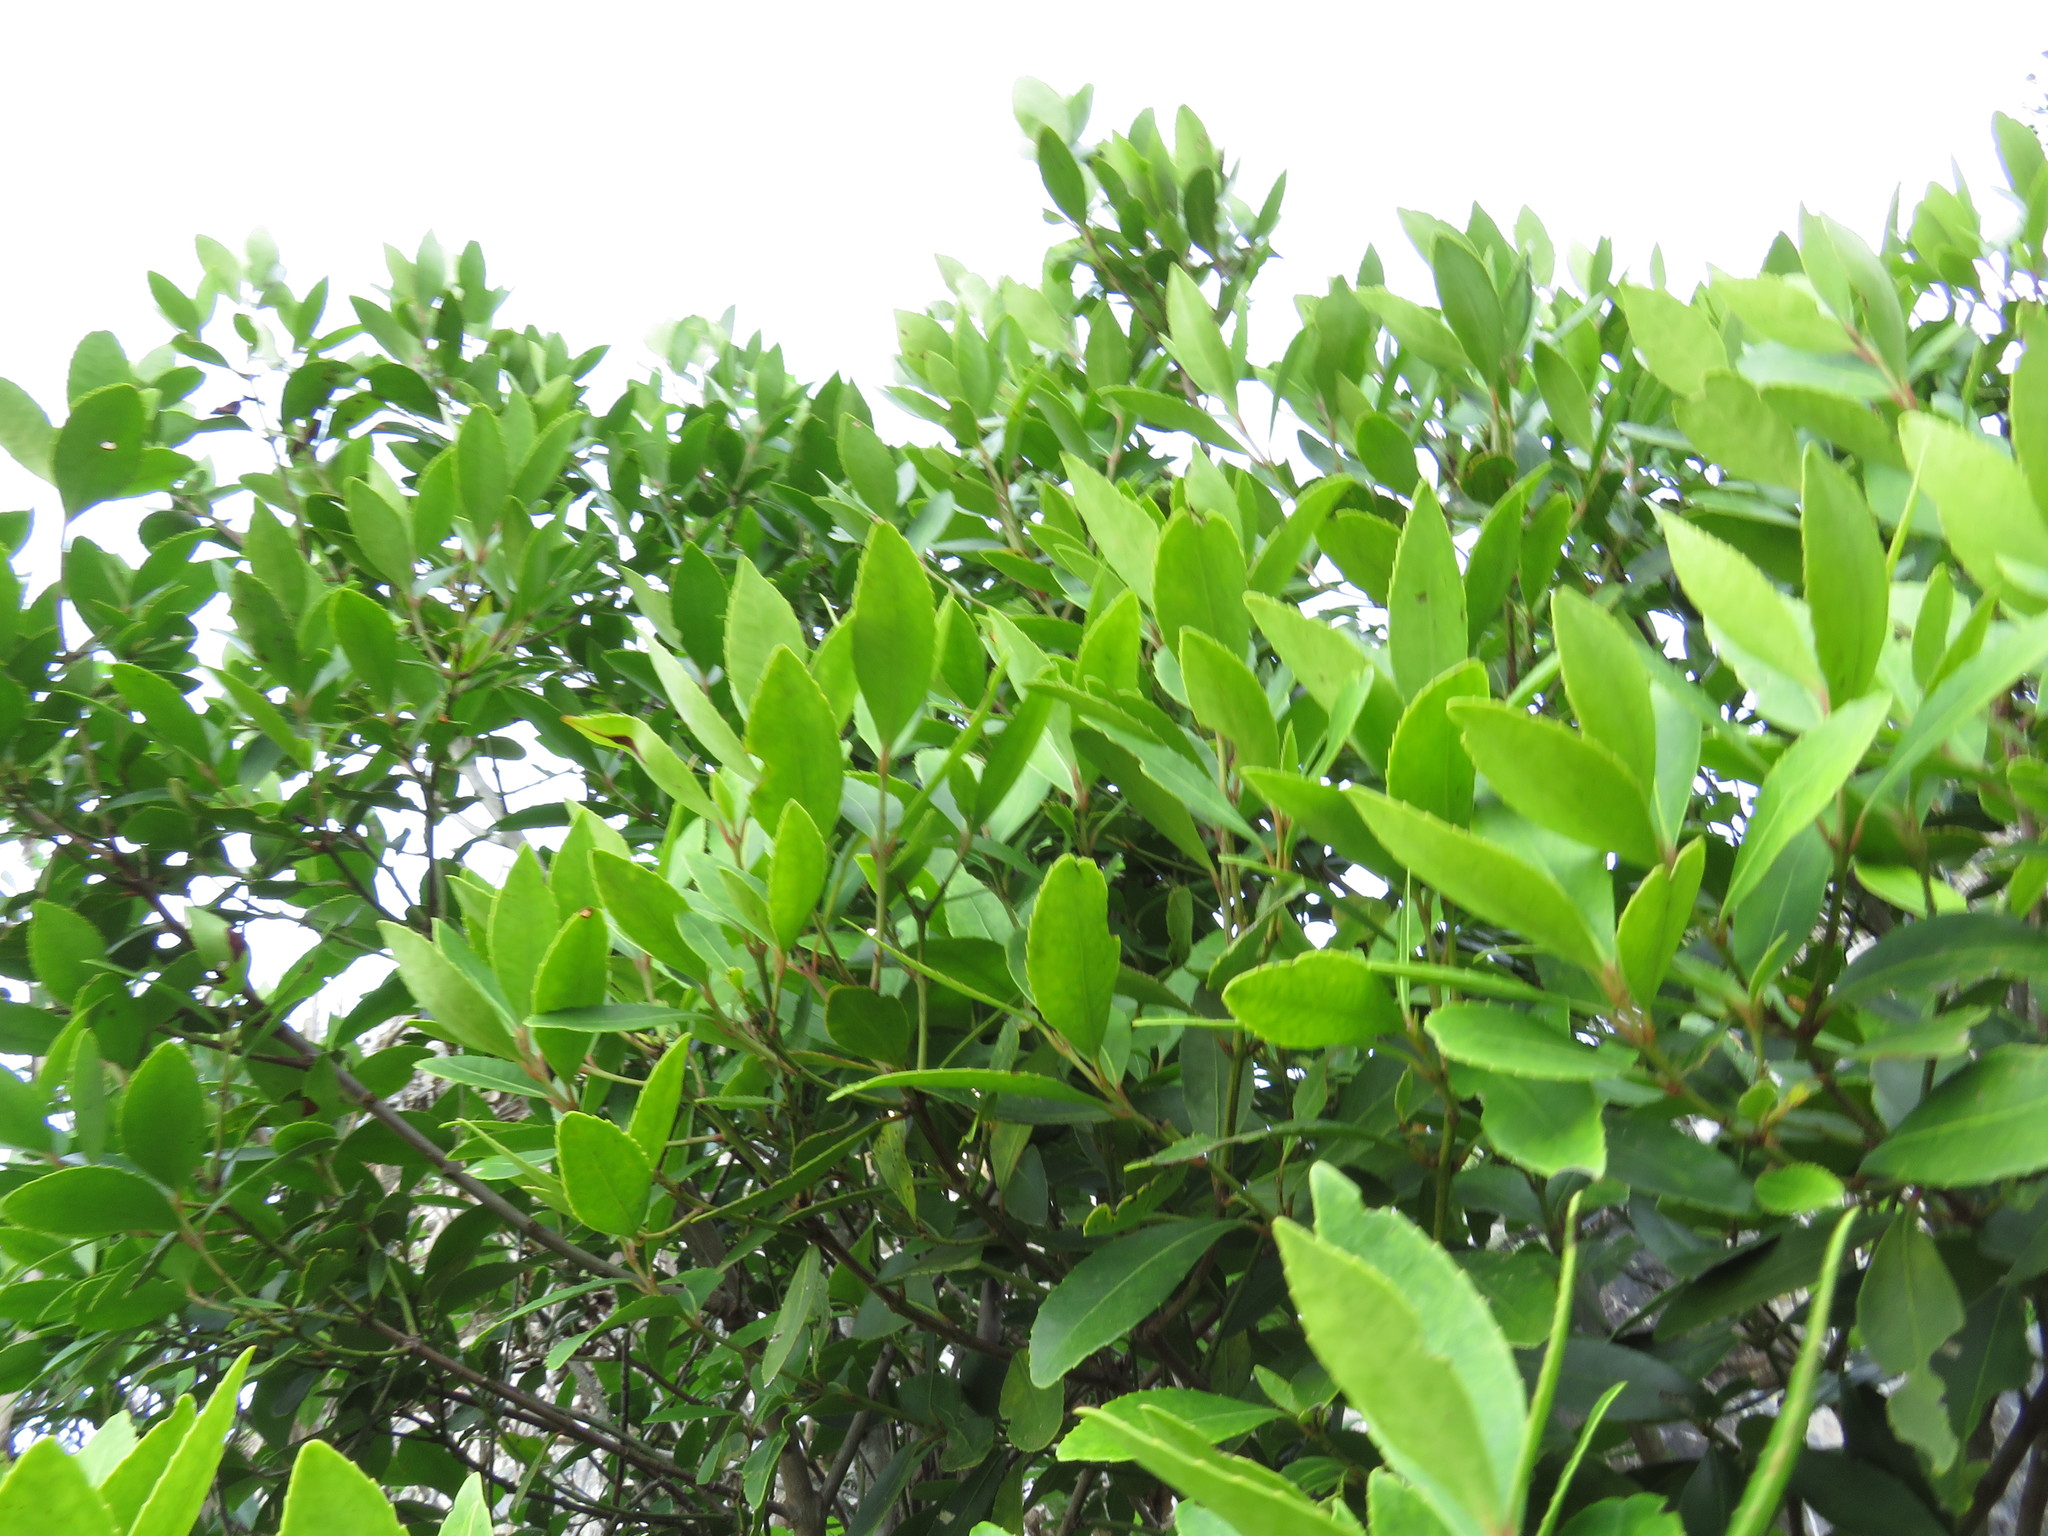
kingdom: Plantae
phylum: Tracheophyta
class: Magnoliopsida
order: Celastrales
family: Celastraceae
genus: Elaeodendron
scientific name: Elaeodendron schinoides
